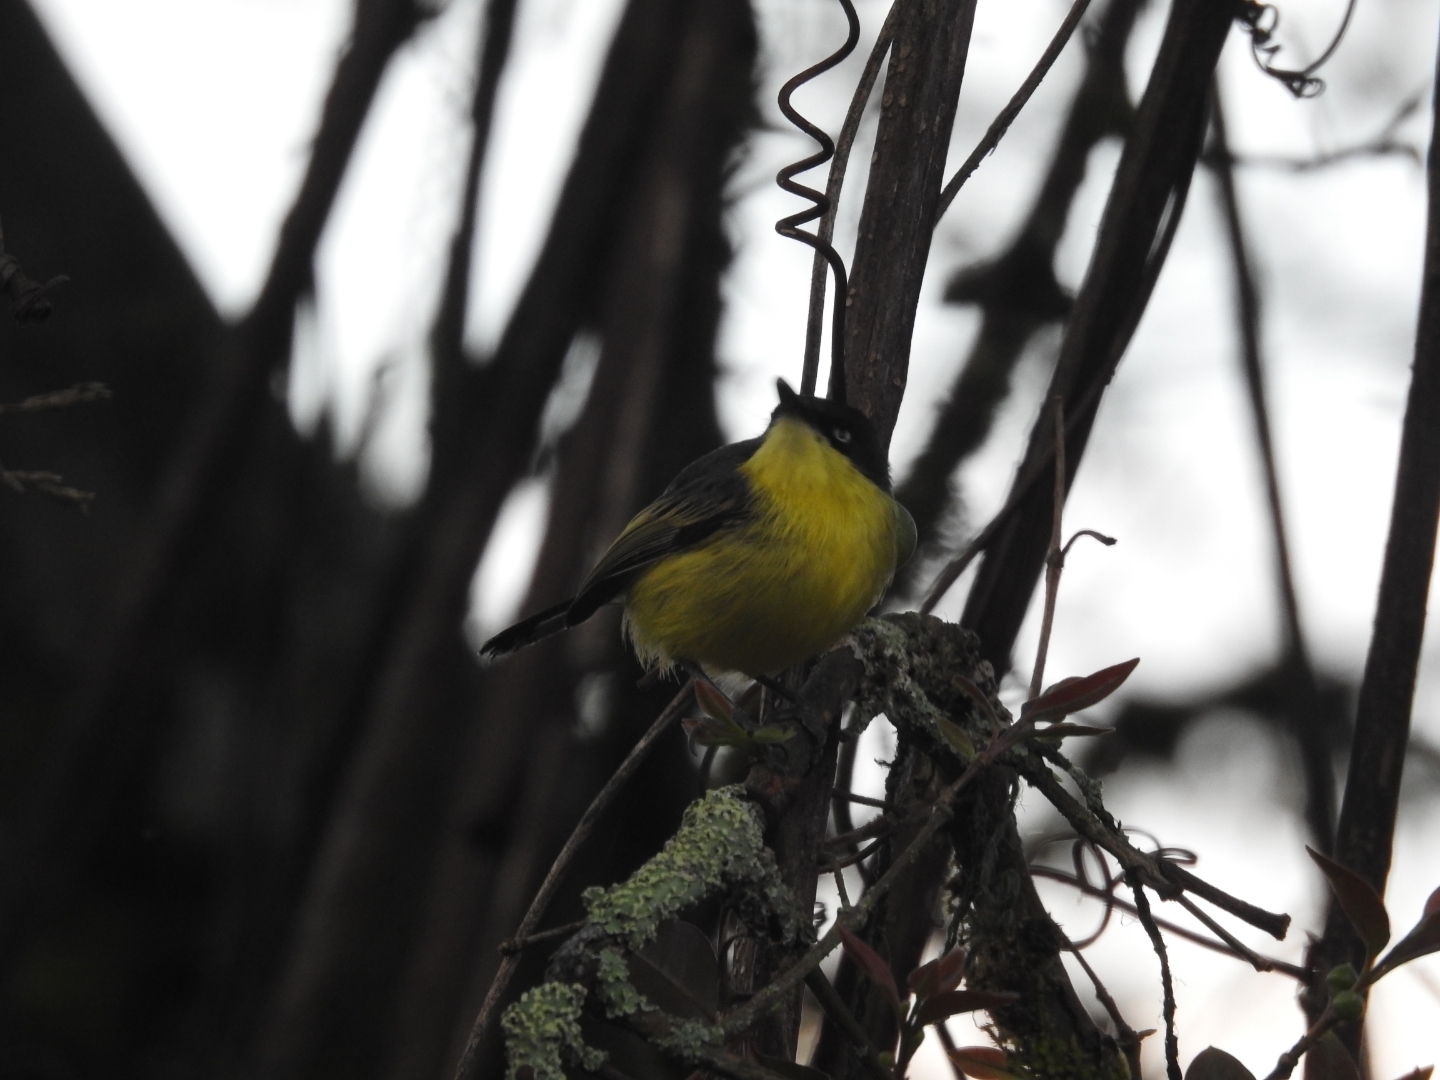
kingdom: Animalia
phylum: Chordata
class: Aves
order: Passeriformes
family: Tyrannidae
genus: Todirostrum
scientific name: Todirostrum cinereum
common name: Common tody-flycatcher
